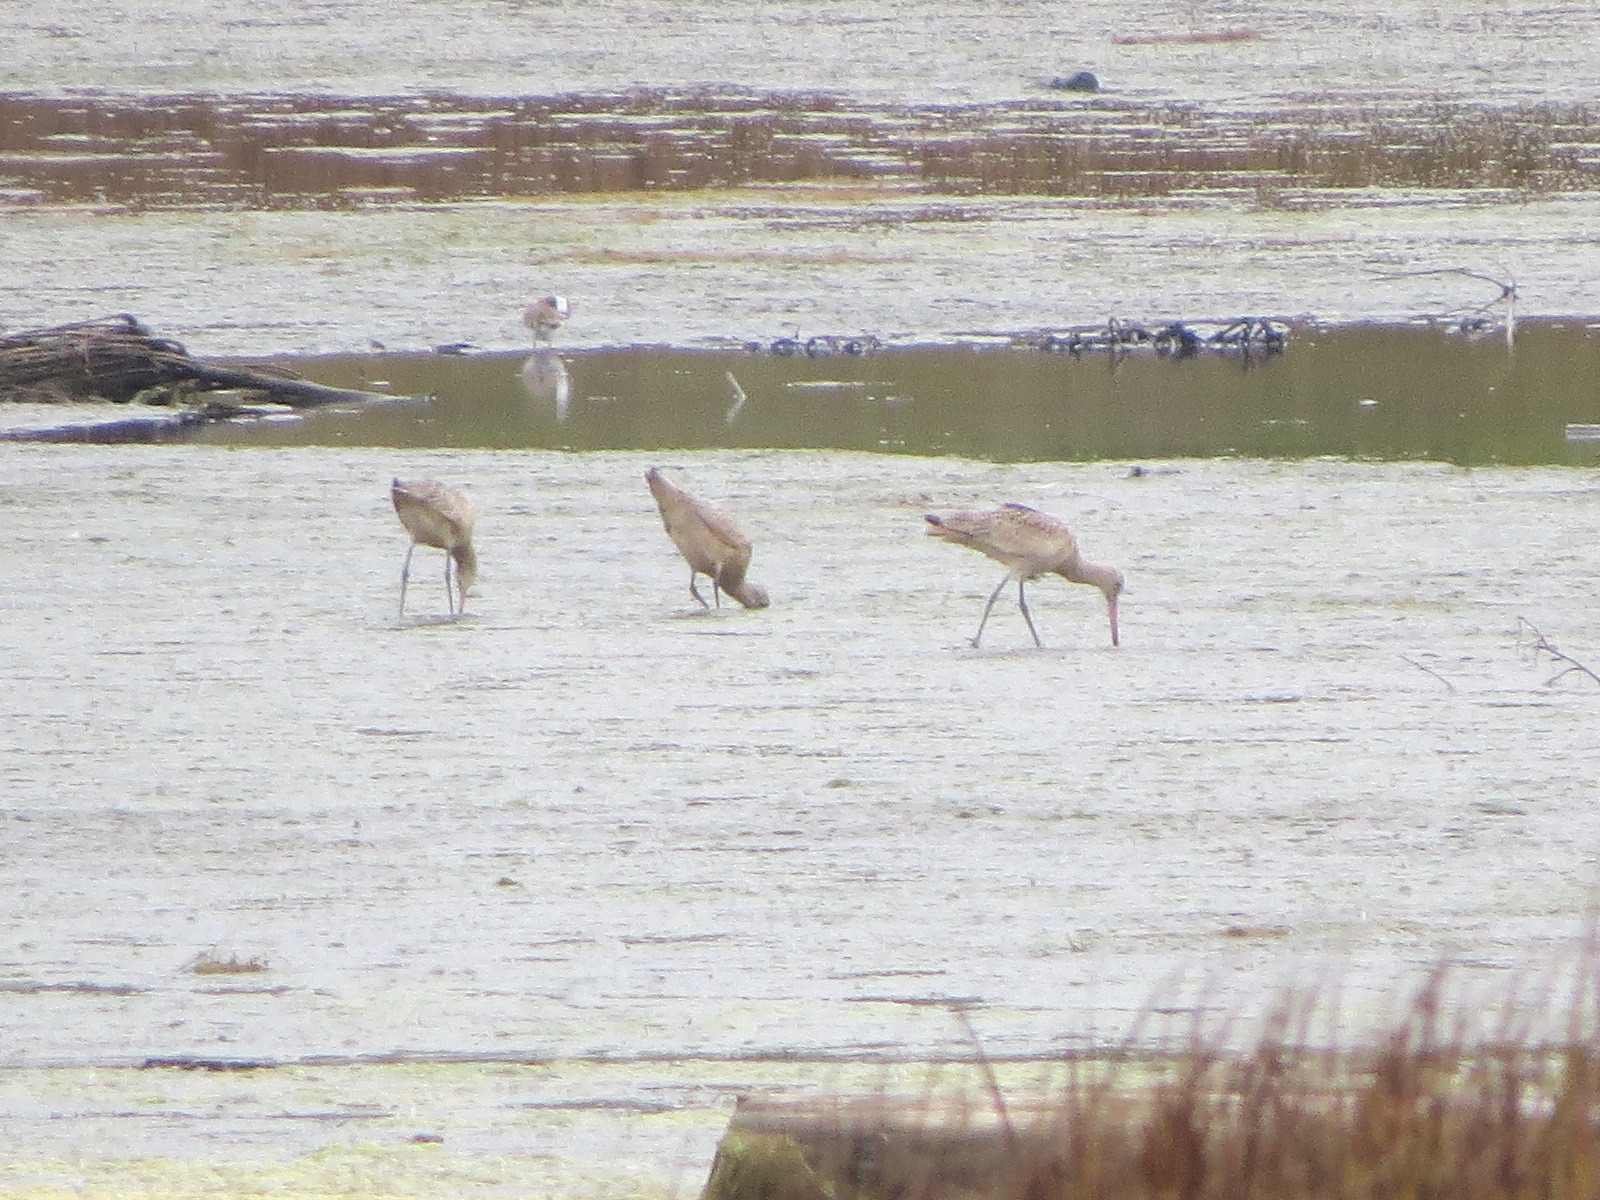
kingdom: Animalia
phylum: Chordata
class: Aves
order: Charadriiformes
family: Scolopacidae
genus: Limosa
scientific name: Limosa fedoa
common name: Marbled godwit
